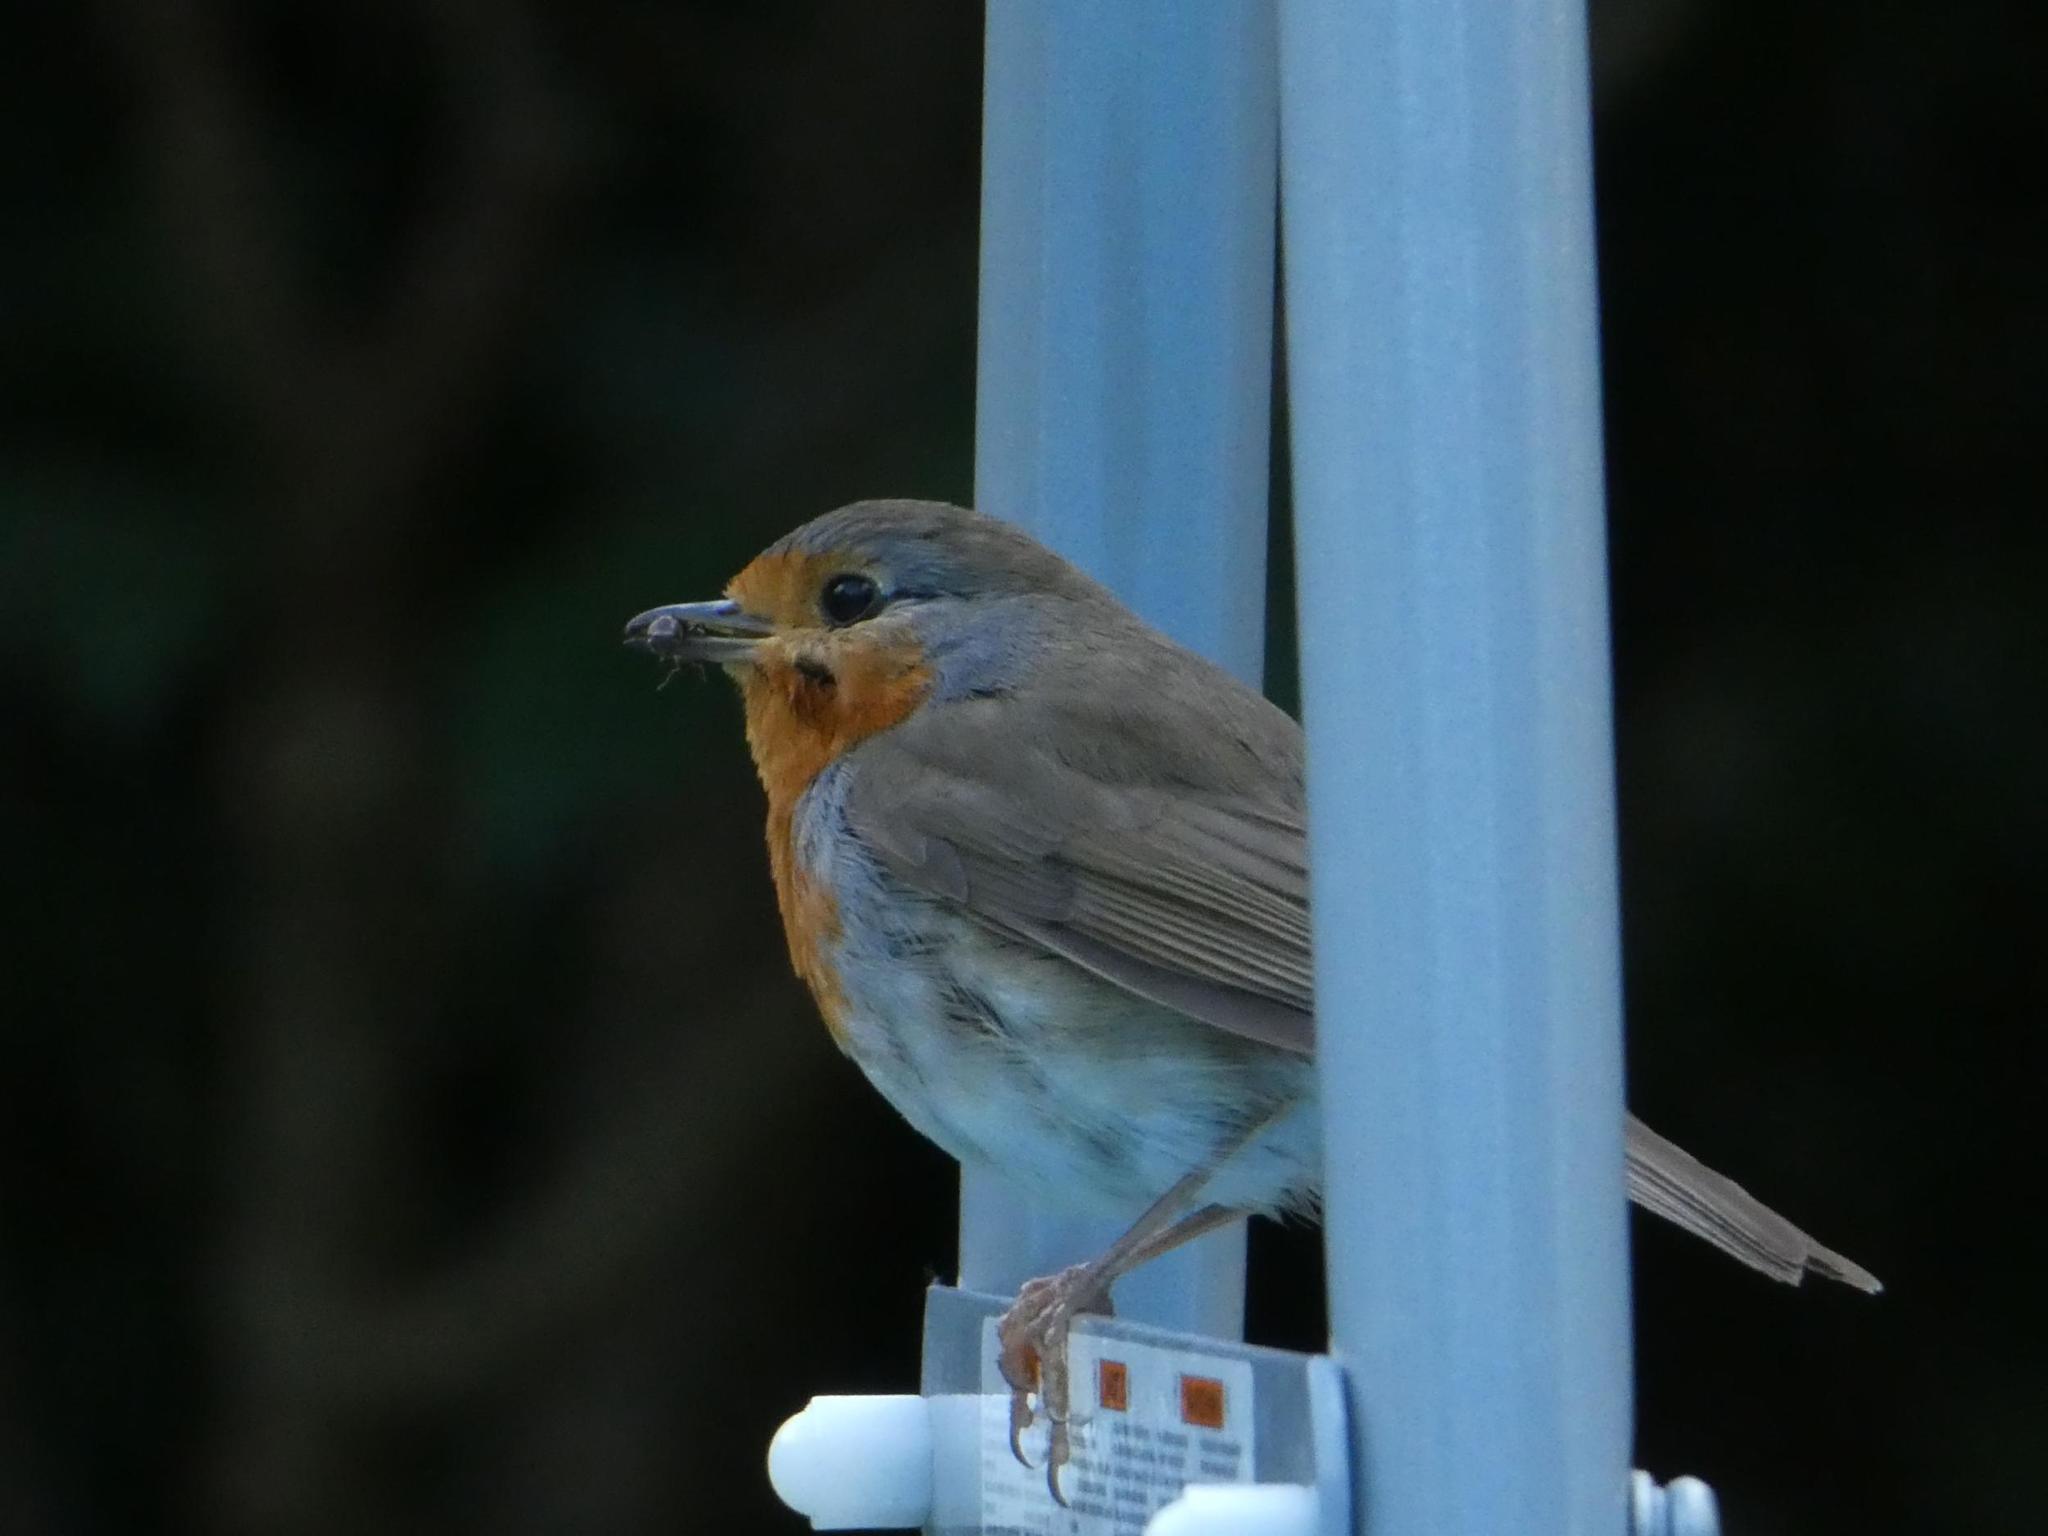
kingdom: Animalia
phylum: Chordata
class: Aves
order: Passeriformes
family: Muscicapidae
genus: Erithacus
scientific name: Erithacus rubecula
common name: European robin
